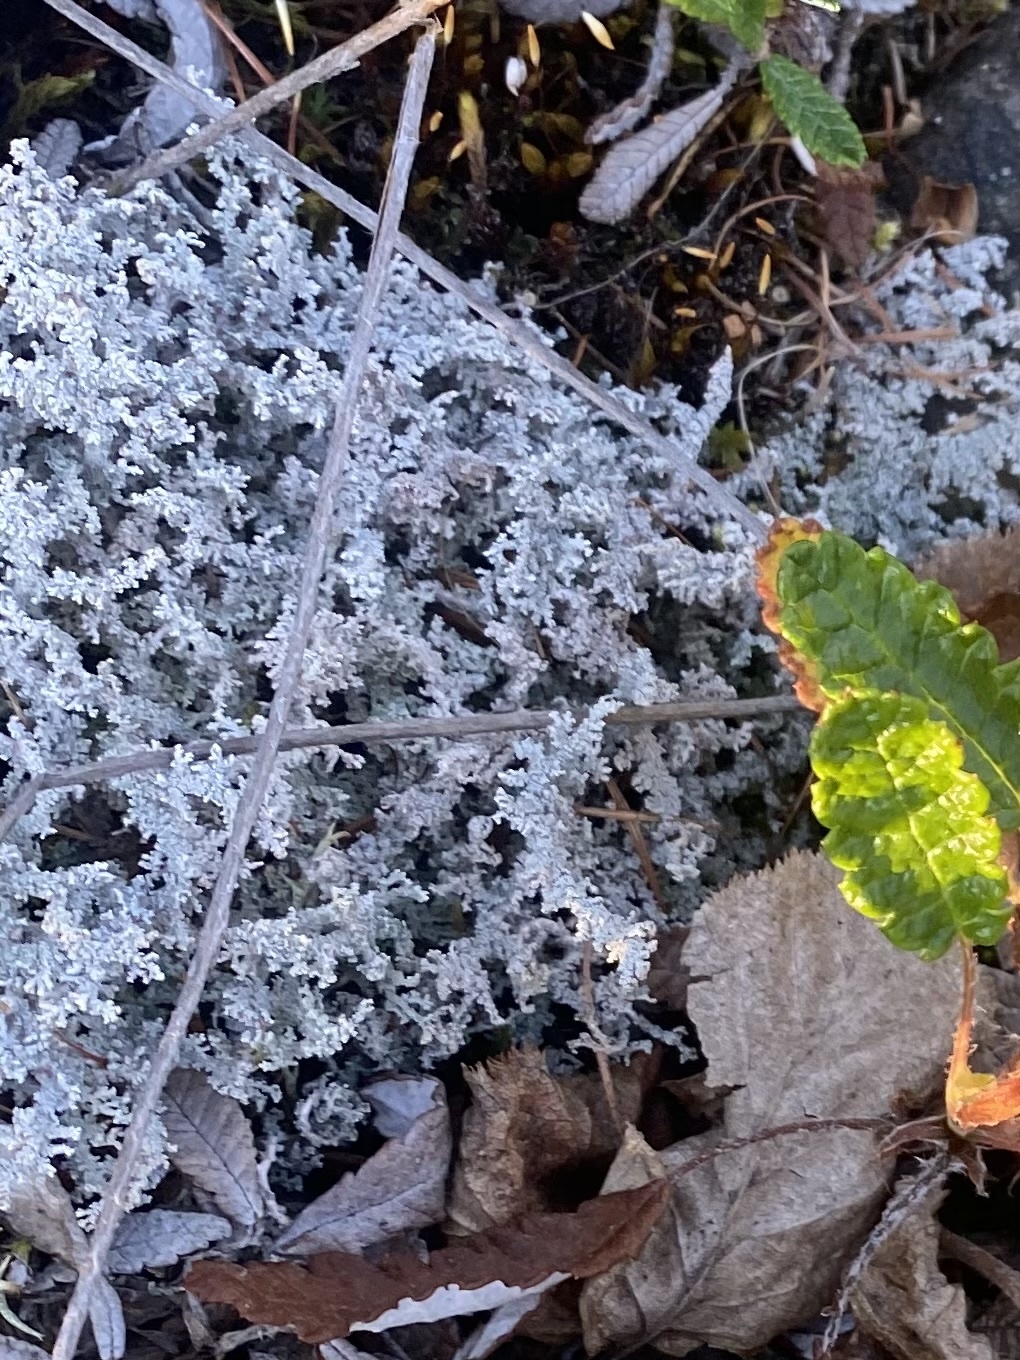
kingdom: Fungi
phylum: Ascomycota
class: Lecanoromycetes
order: Lecanorales
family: Stereocaulaceae
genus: Stereocaulon
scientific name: Stereocaulon
